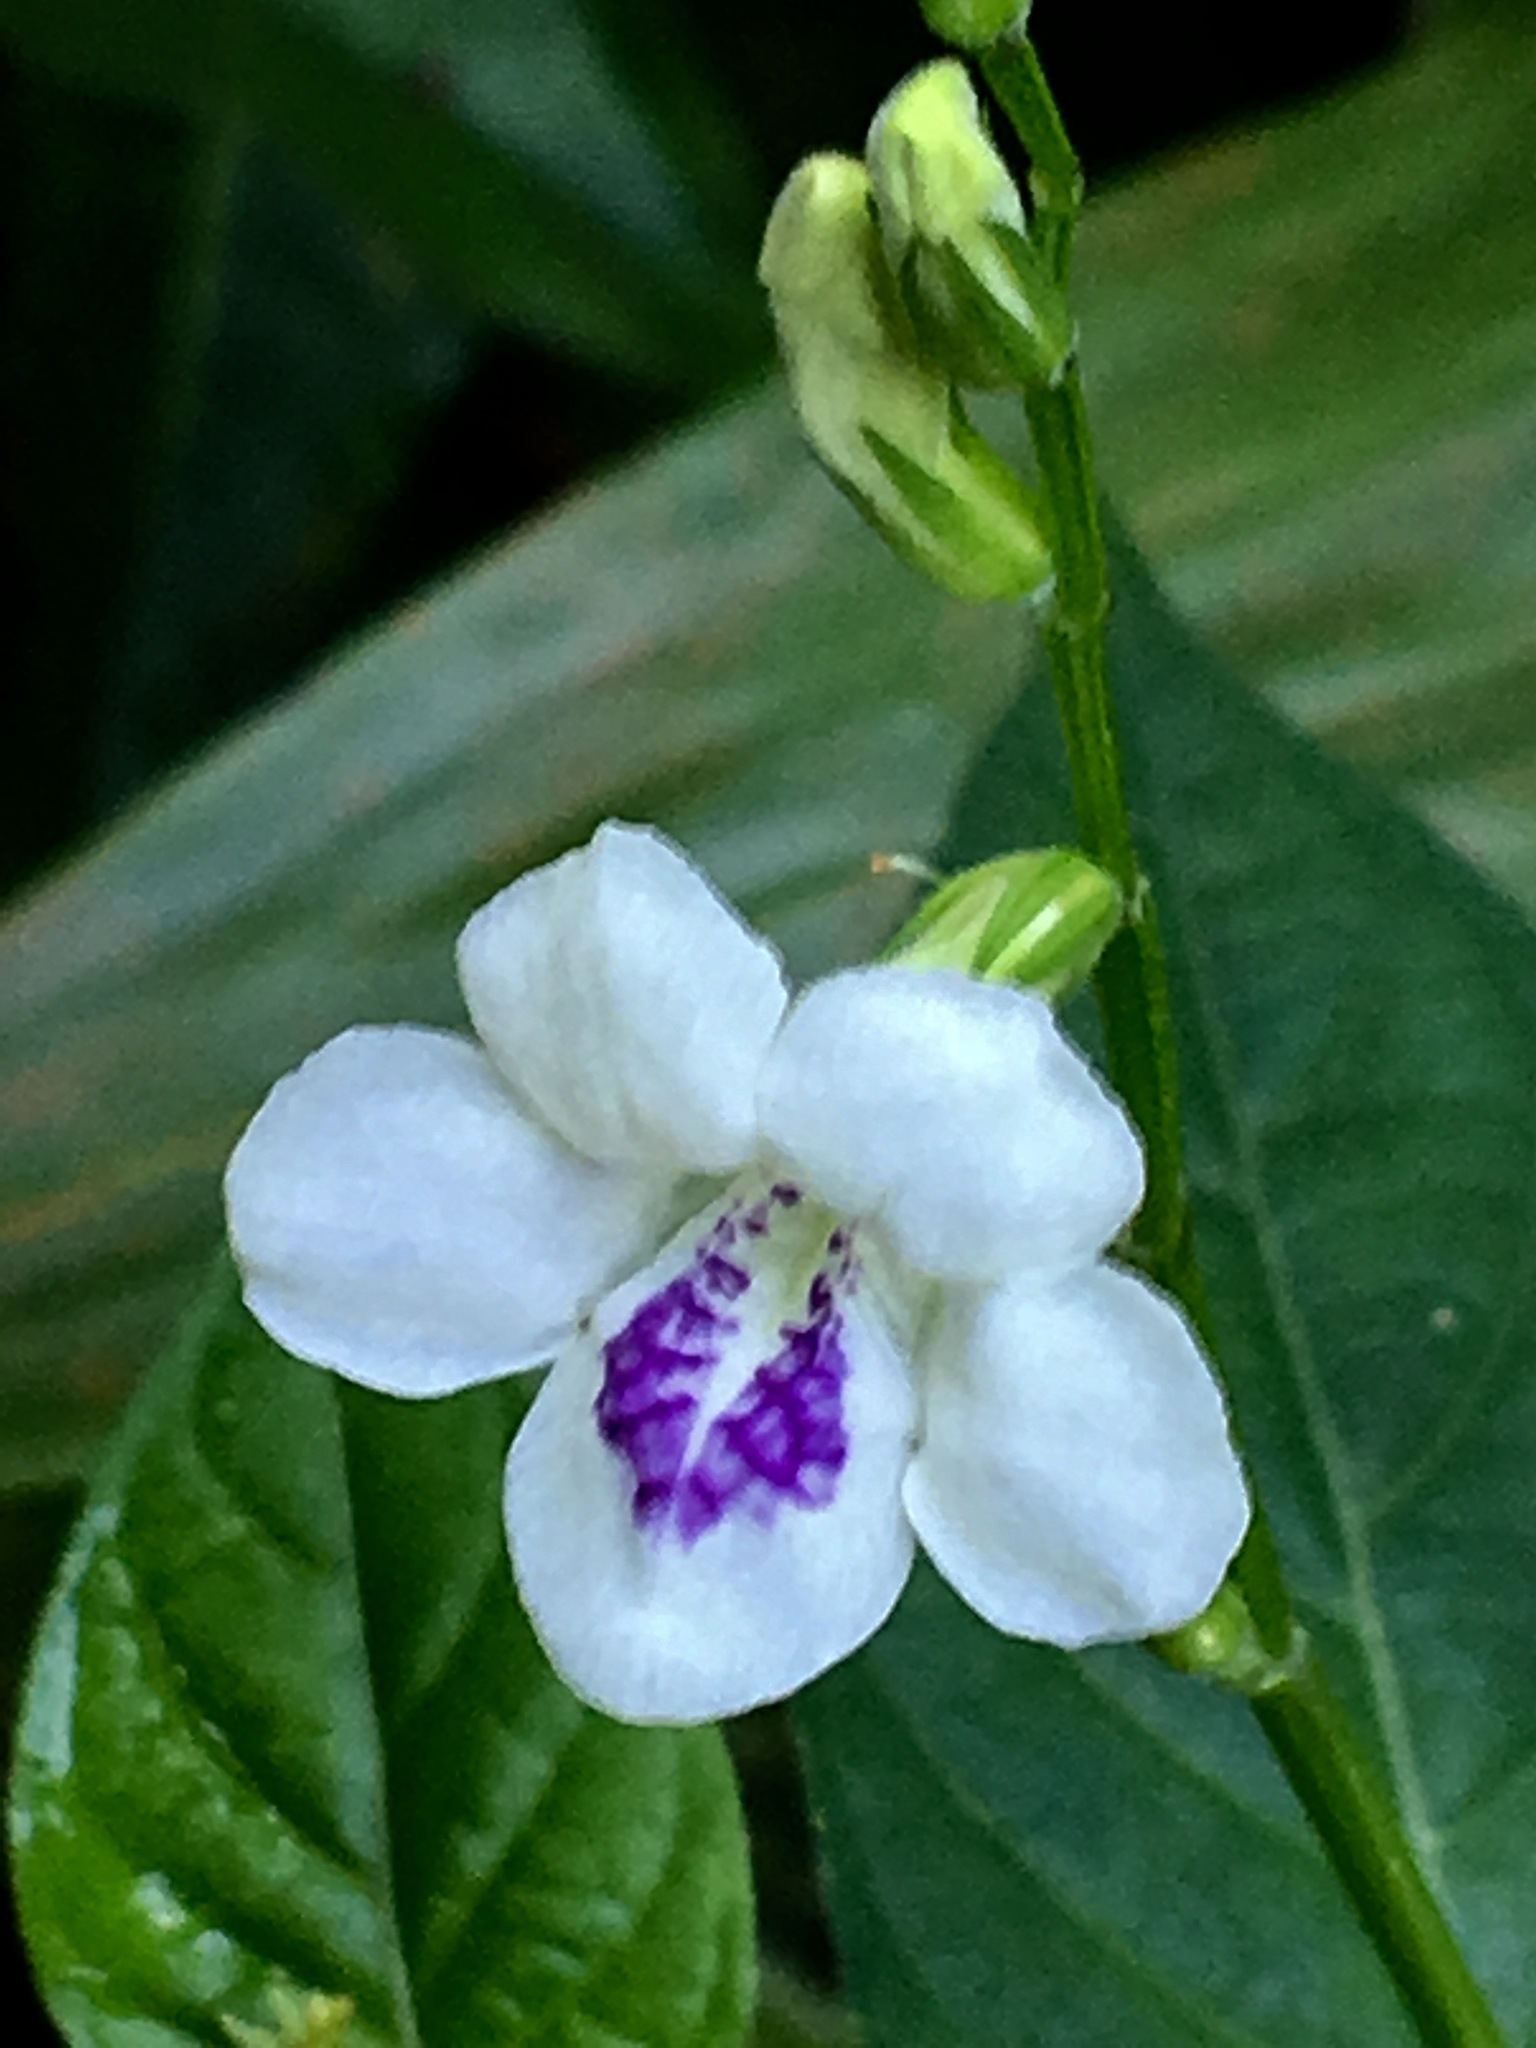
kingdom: Plantae
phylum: Tracheophyta
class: Magnoliopsida
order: Lamiales
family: Acanthaceae
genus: Asystasia
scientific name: Asystasia intrusa
